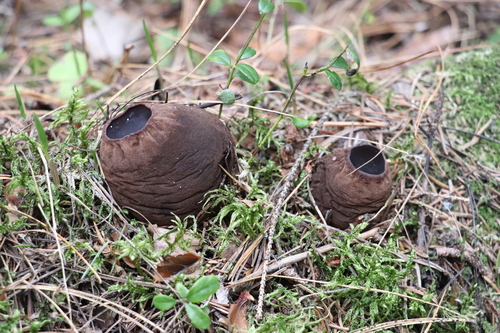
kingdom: Fungi
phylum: Ascomycota
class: Pezizomycetes
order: Pezizales
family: Sarcosomataceae
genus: Sarcosoma
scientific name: Sarcosoma globosum
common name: Charred-pancake cup
